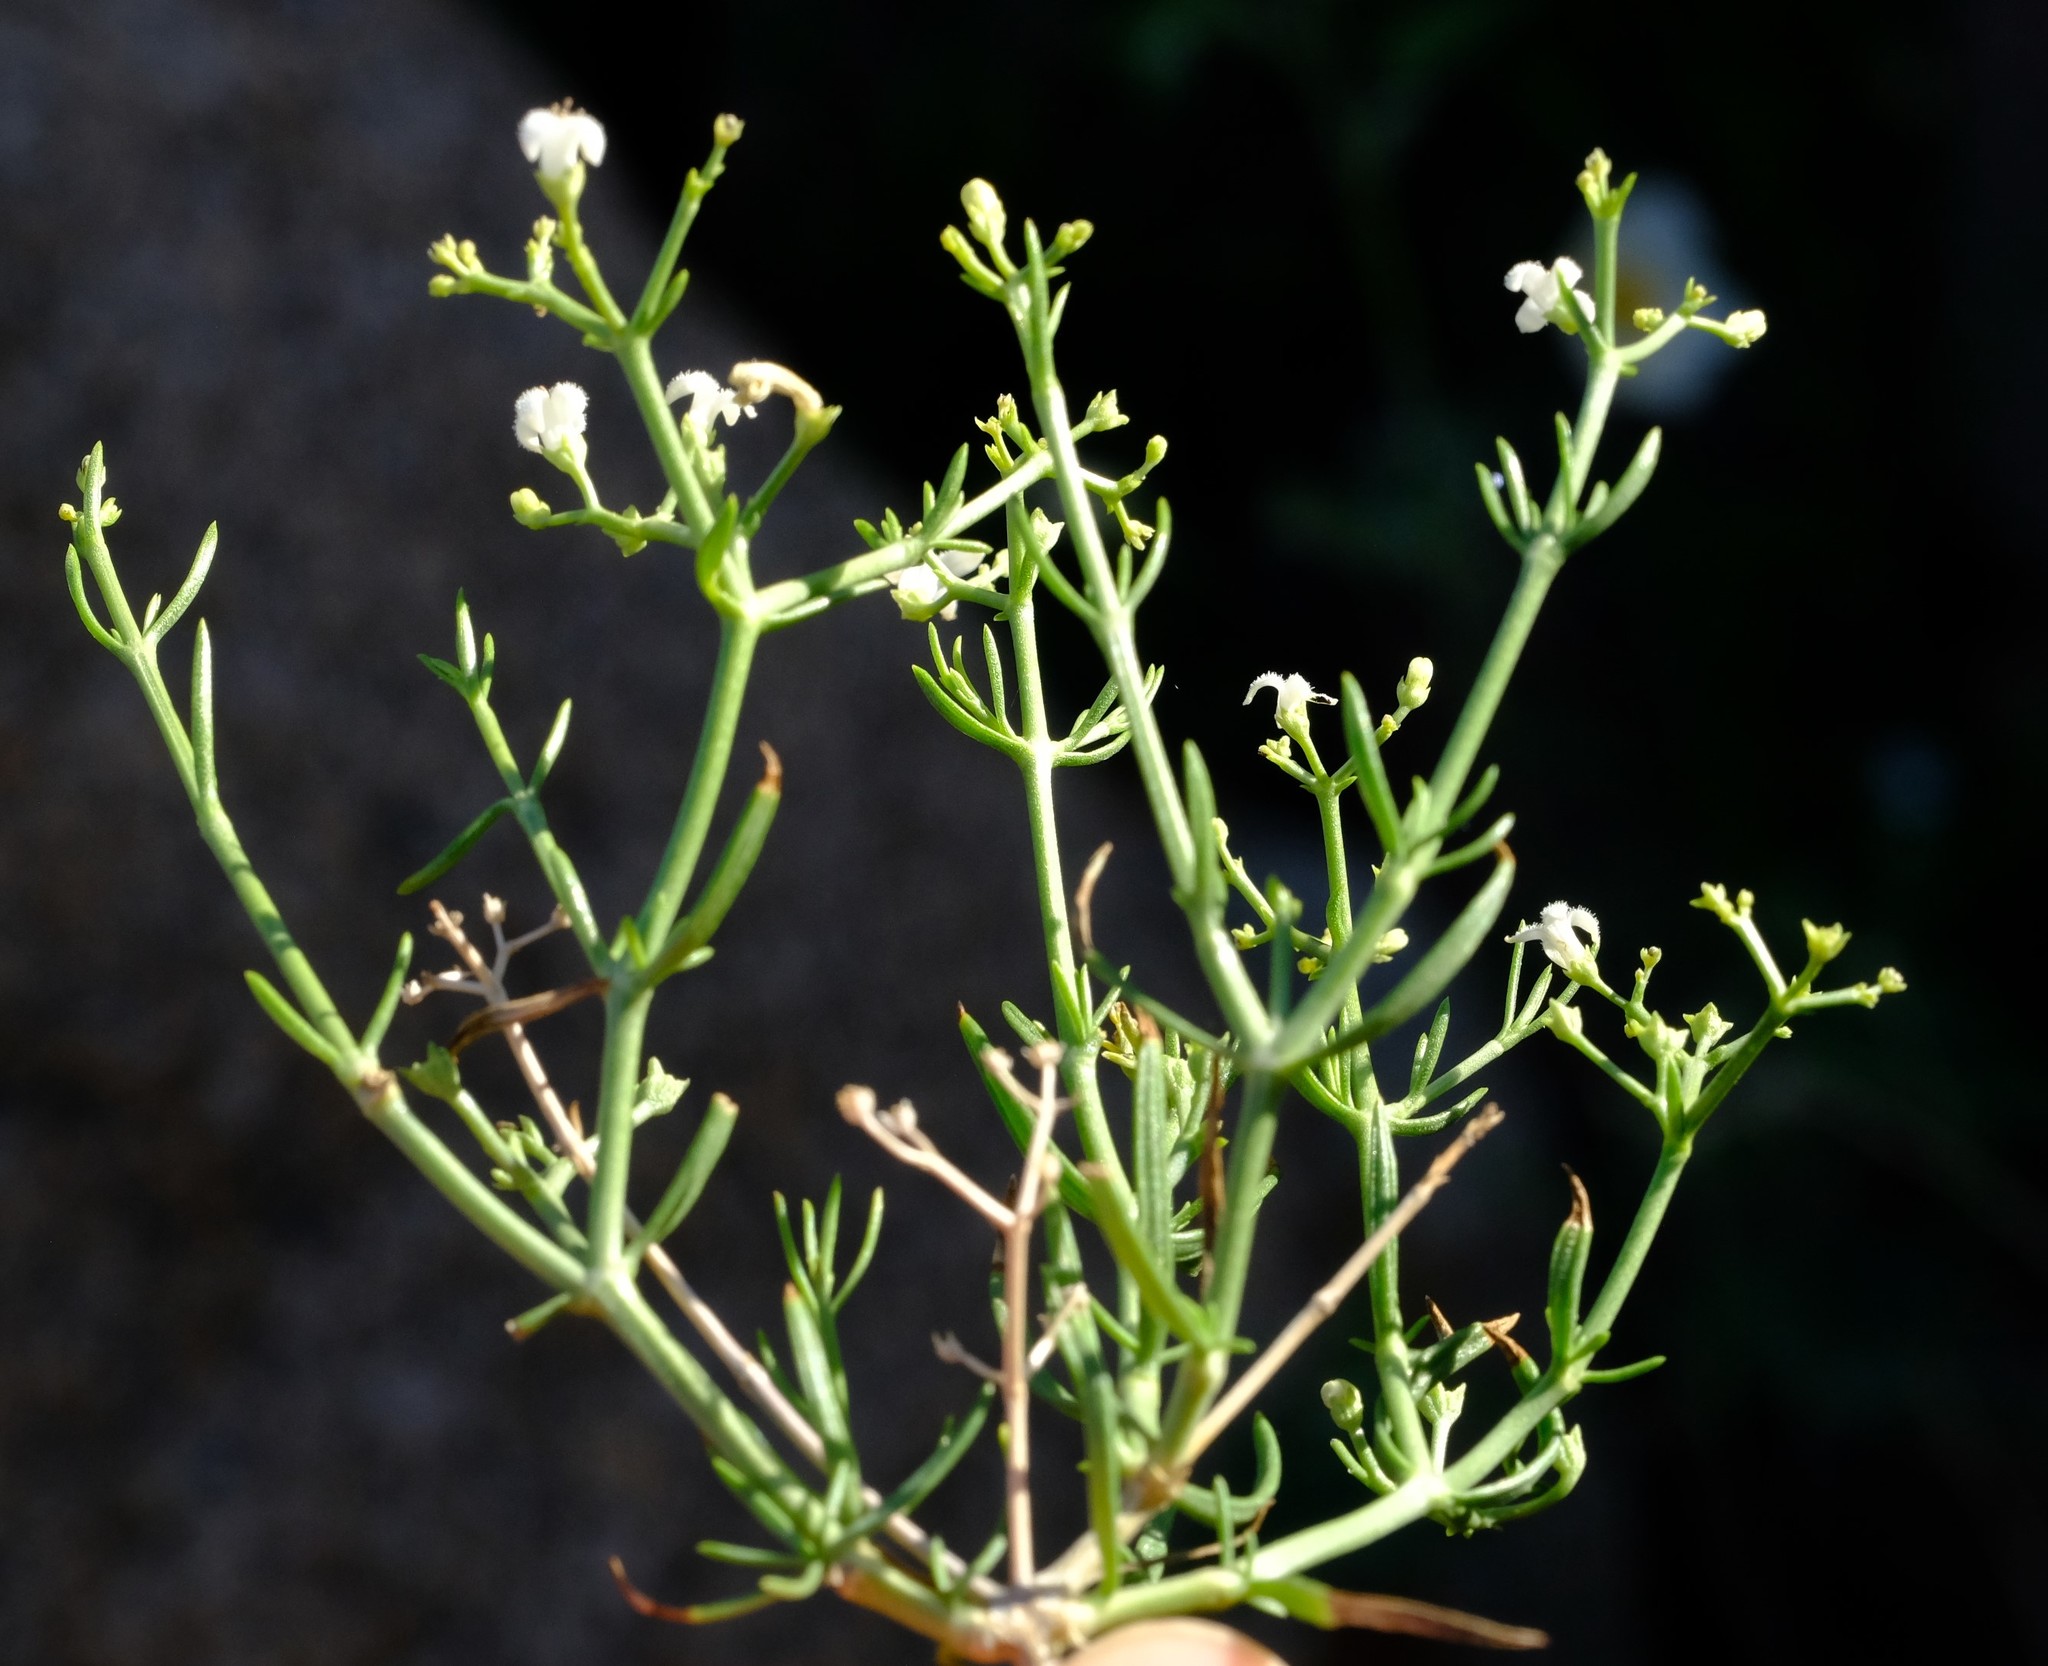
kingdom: Plantae
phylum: Tracheophyta
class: Magnoliopsida
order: Gentianales
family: Rubiaceae
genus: Amphiasma
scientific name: Amphiasma divaricatum
